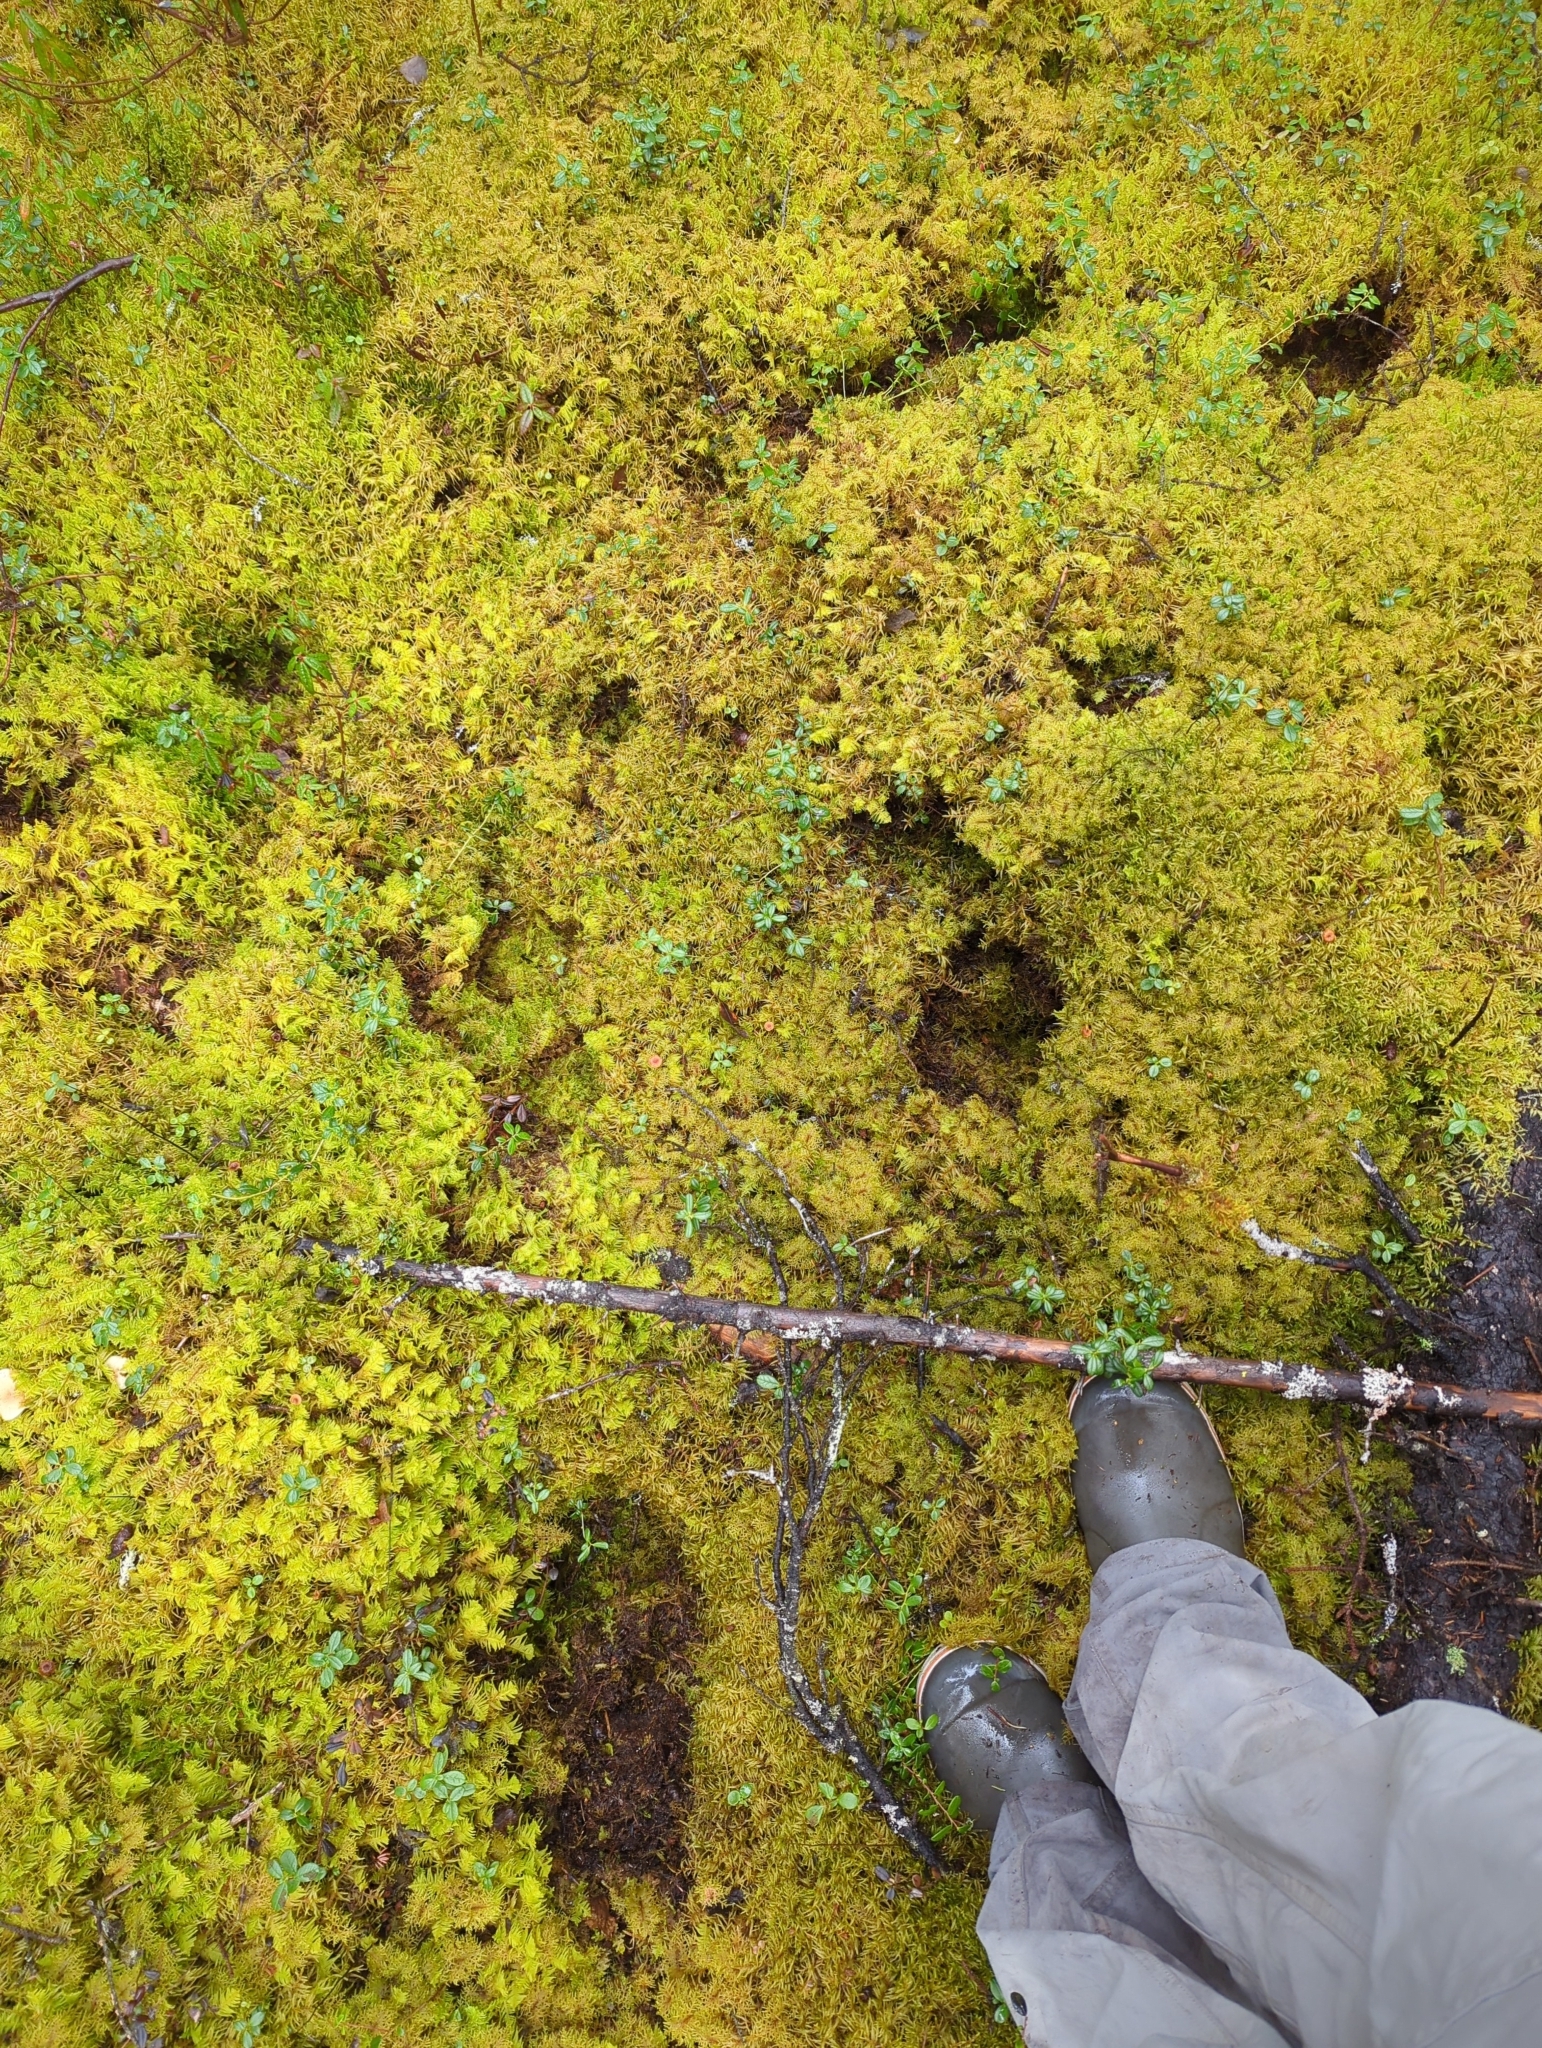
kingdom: Animalia
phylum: Chordata
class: Mammalia
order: Artiodactyla
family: Cervidae
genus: Alces
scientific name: Alces alces
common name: Moose
